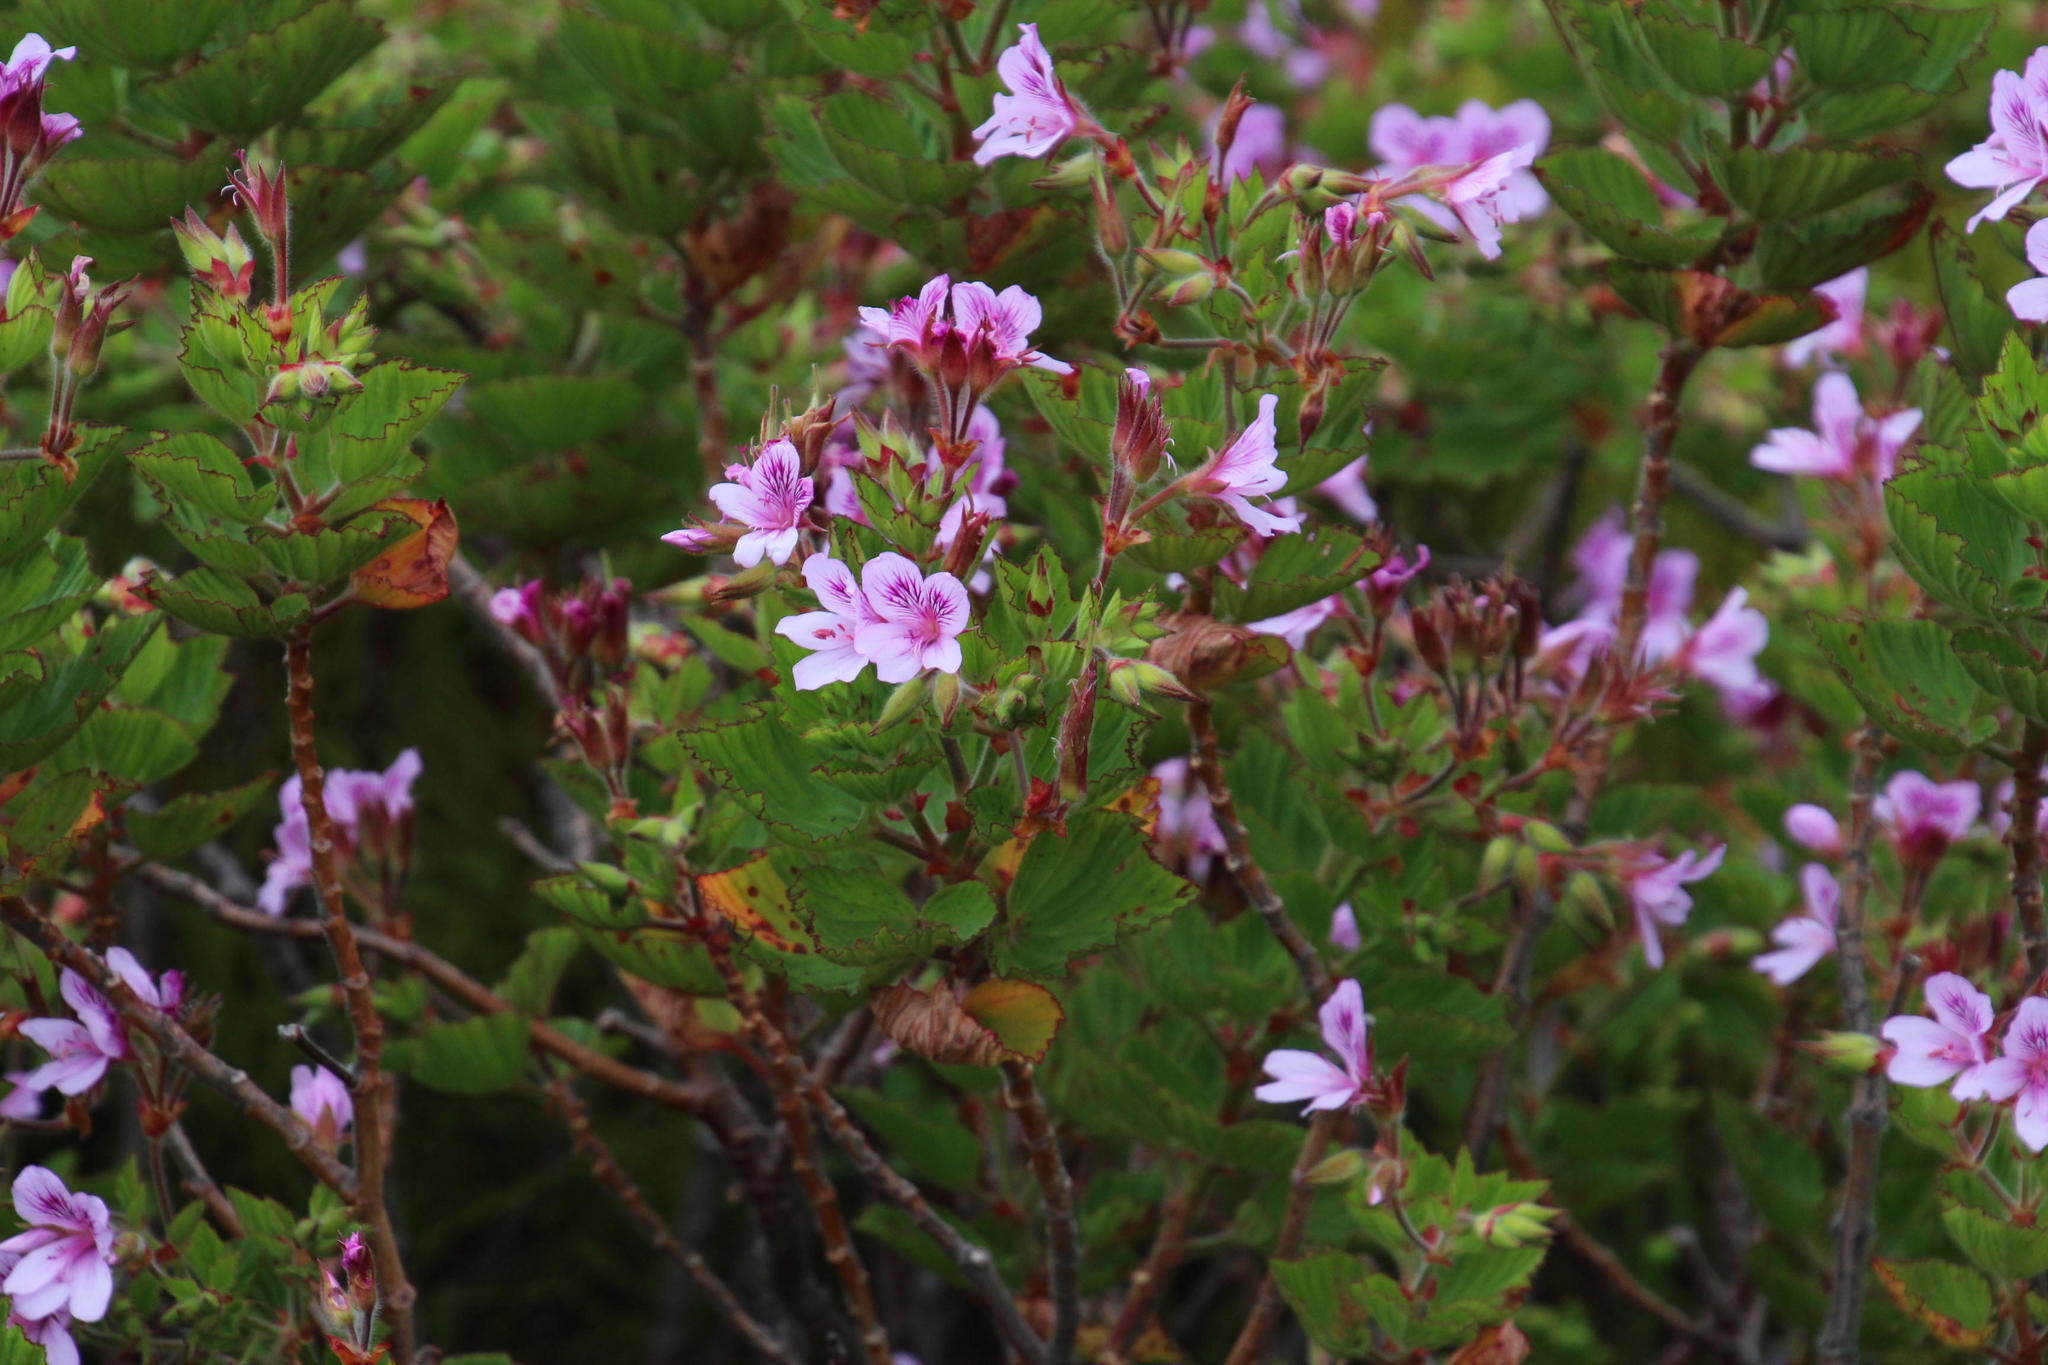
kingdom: Plantae
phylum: Tracheophyta
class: Magnoliopsida
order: Geraniales
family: Geraniaceae
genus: Pelargonium
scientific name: Pelargonium cucullatum
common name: Tree pelargonium
